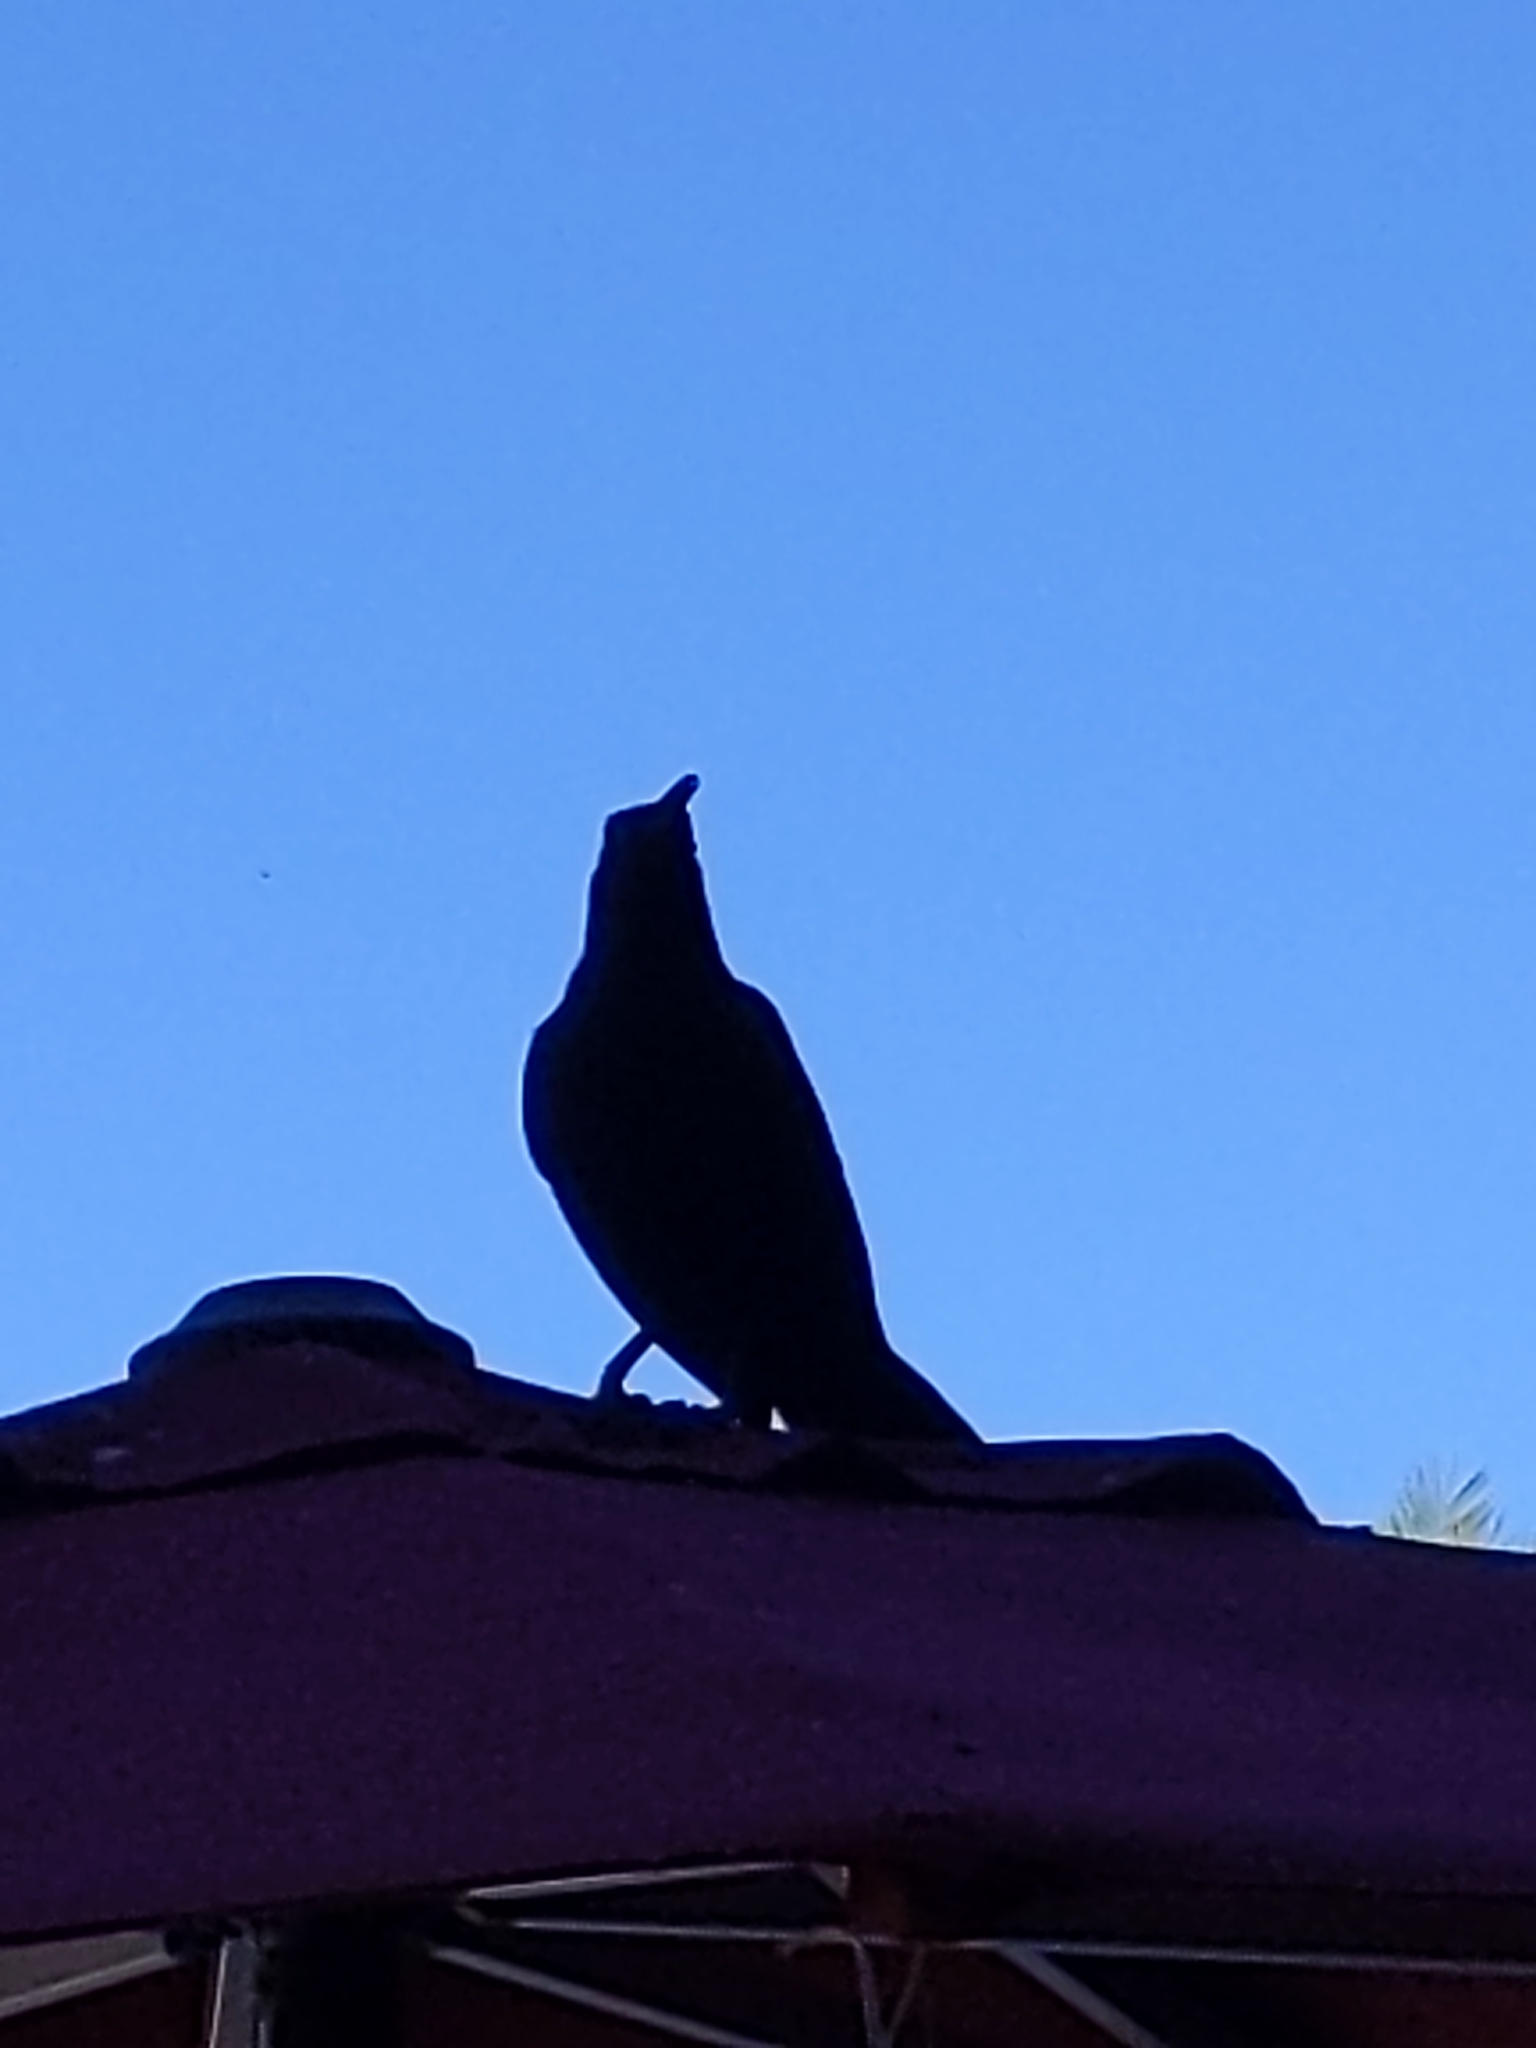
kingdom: Animalia
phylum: Chordata
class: Aves
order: Passeriformes
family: Icteridae
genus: Quiscalus
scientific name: Quiscalus mexicanus
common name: Great-tailed grackle
